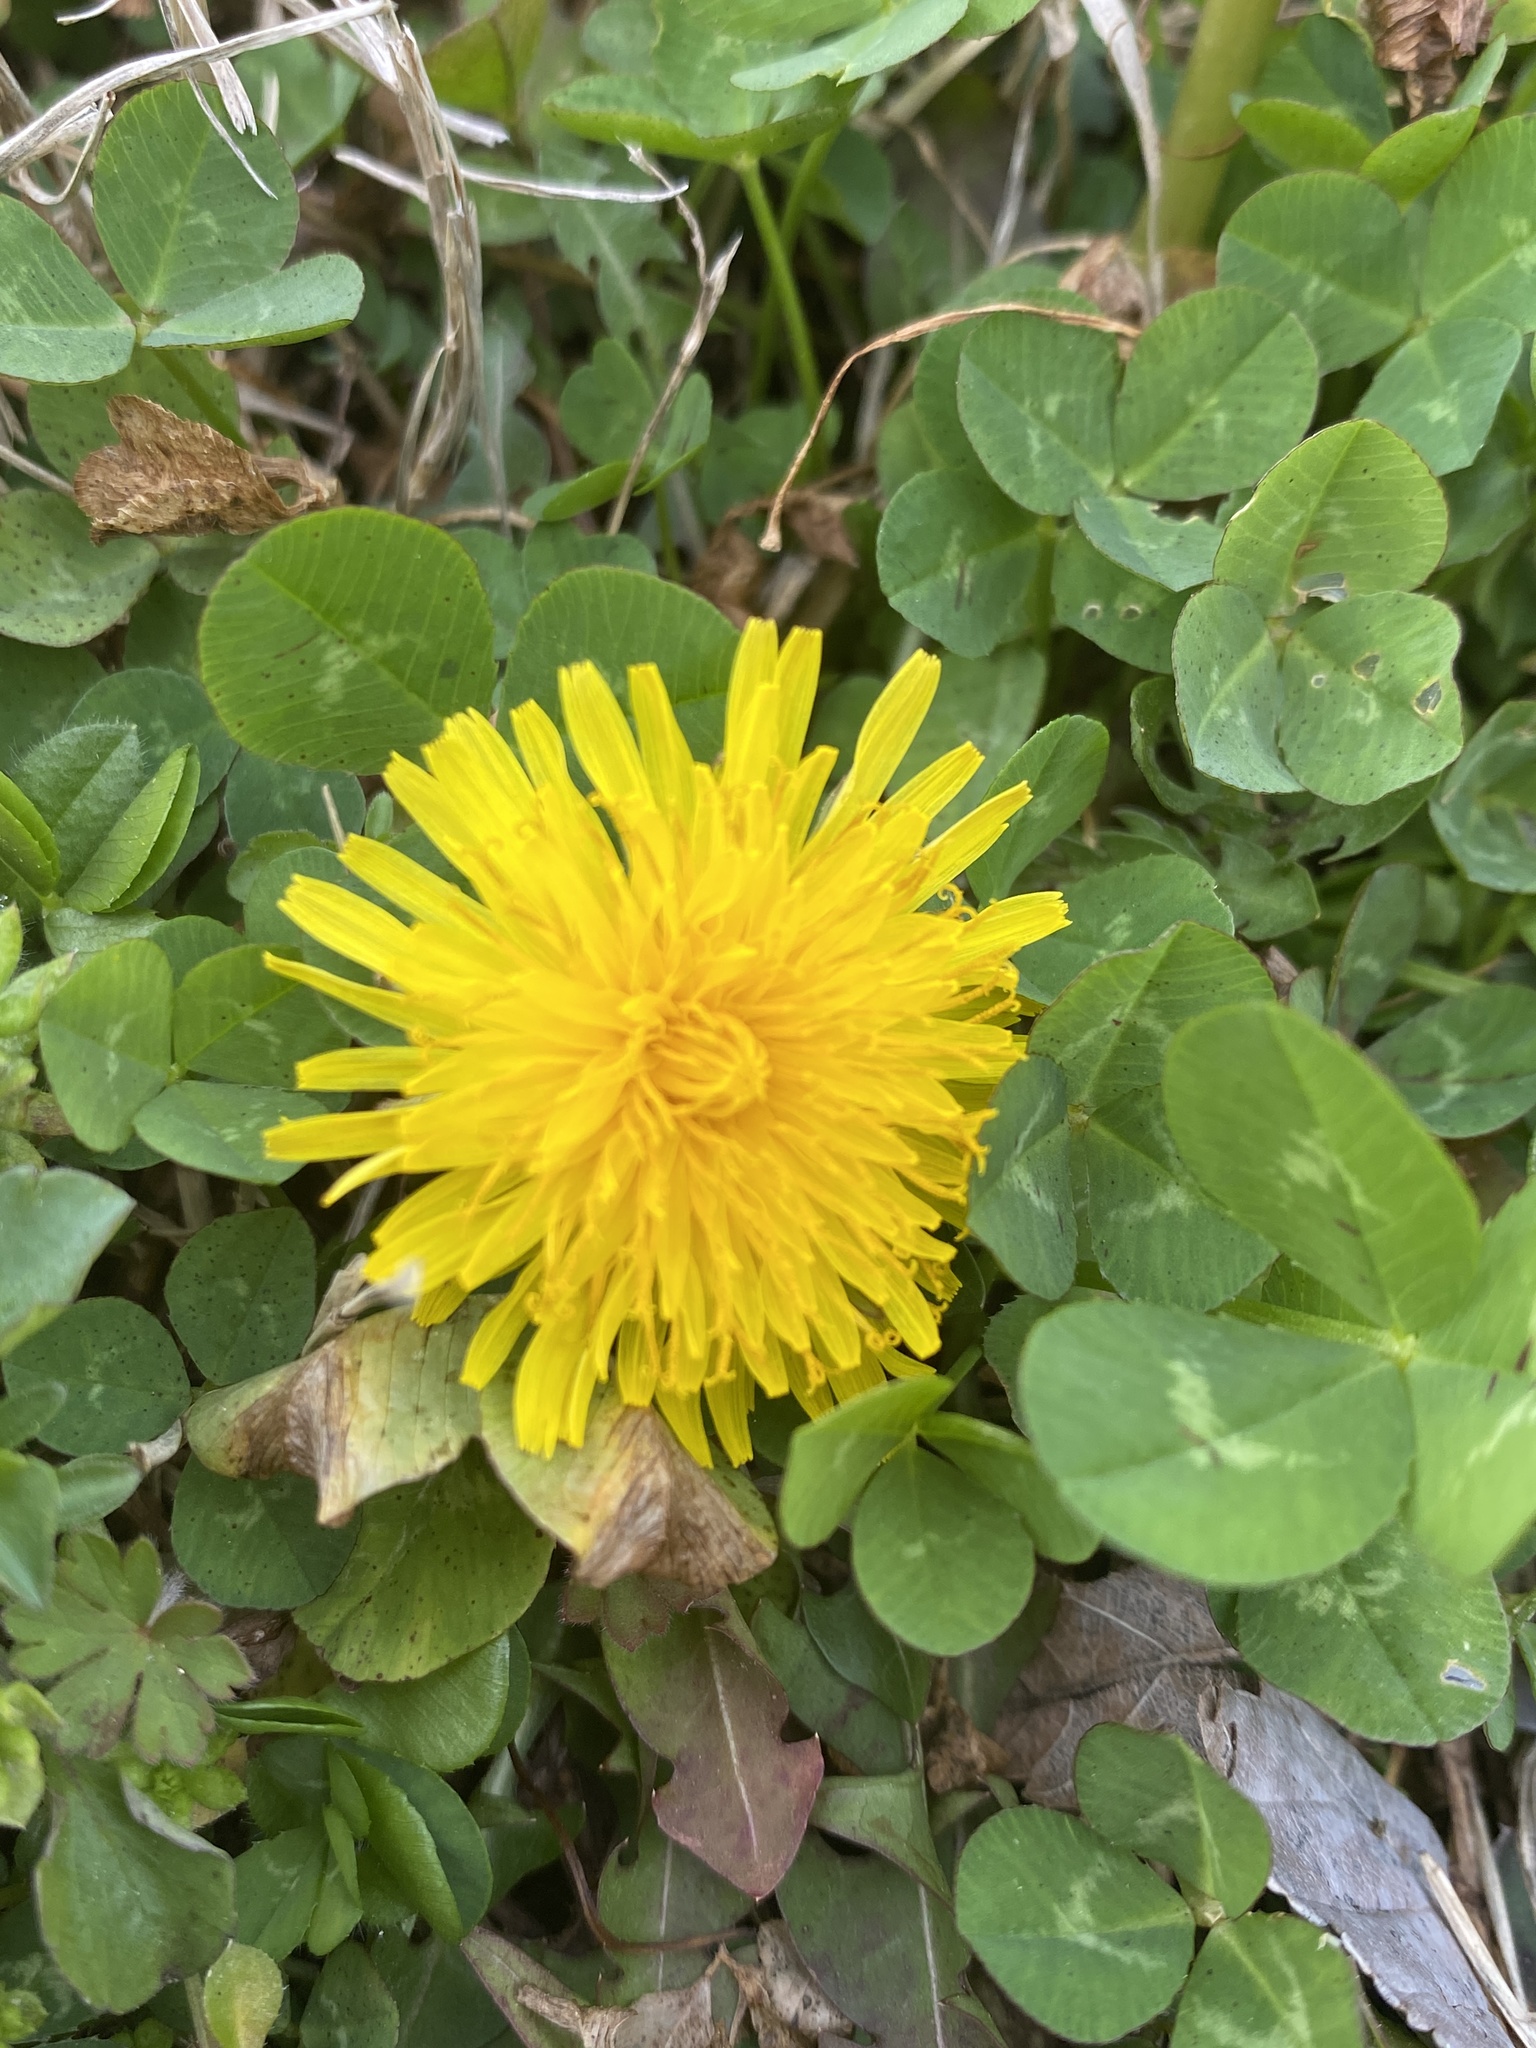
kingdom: Plantae
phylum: Tracheophyta
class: Magnoliopsida
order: Asterales
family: Asteraceae
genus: Taraxacum
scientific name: Taraxacum officinale
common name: Common dandelion
